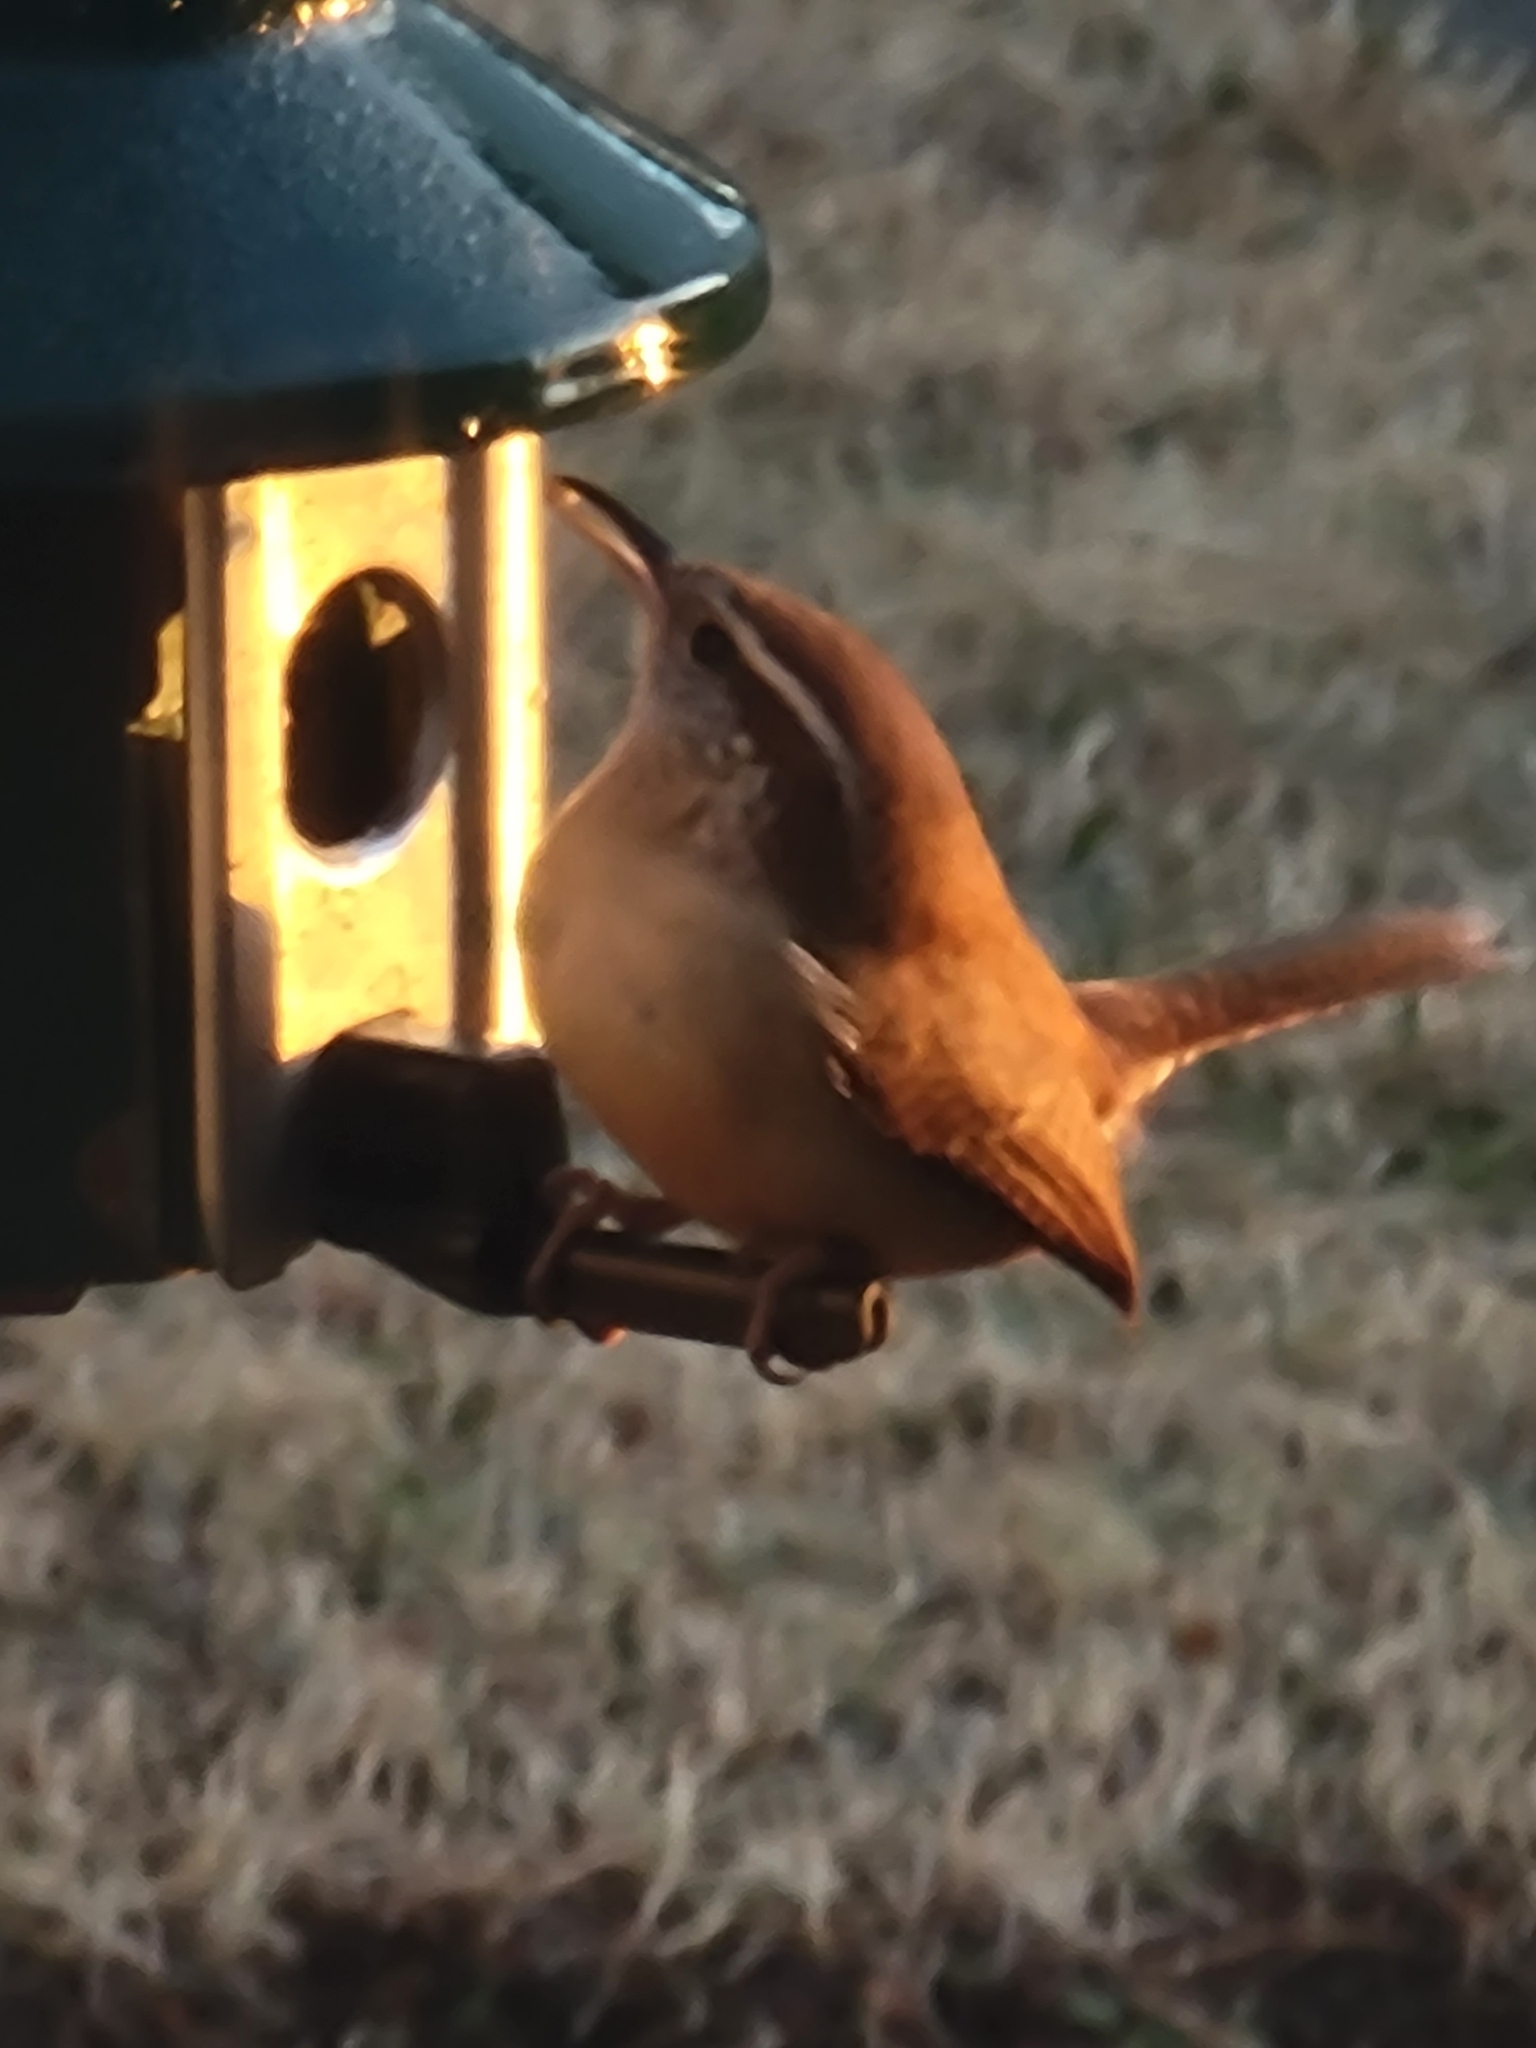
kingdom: Animalia
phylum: Chordata
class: Aves
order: Passeriformes
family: Troglodytidae
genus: Thryothorus
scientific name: Thryothorus ludovicianus
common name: Carolina wren
